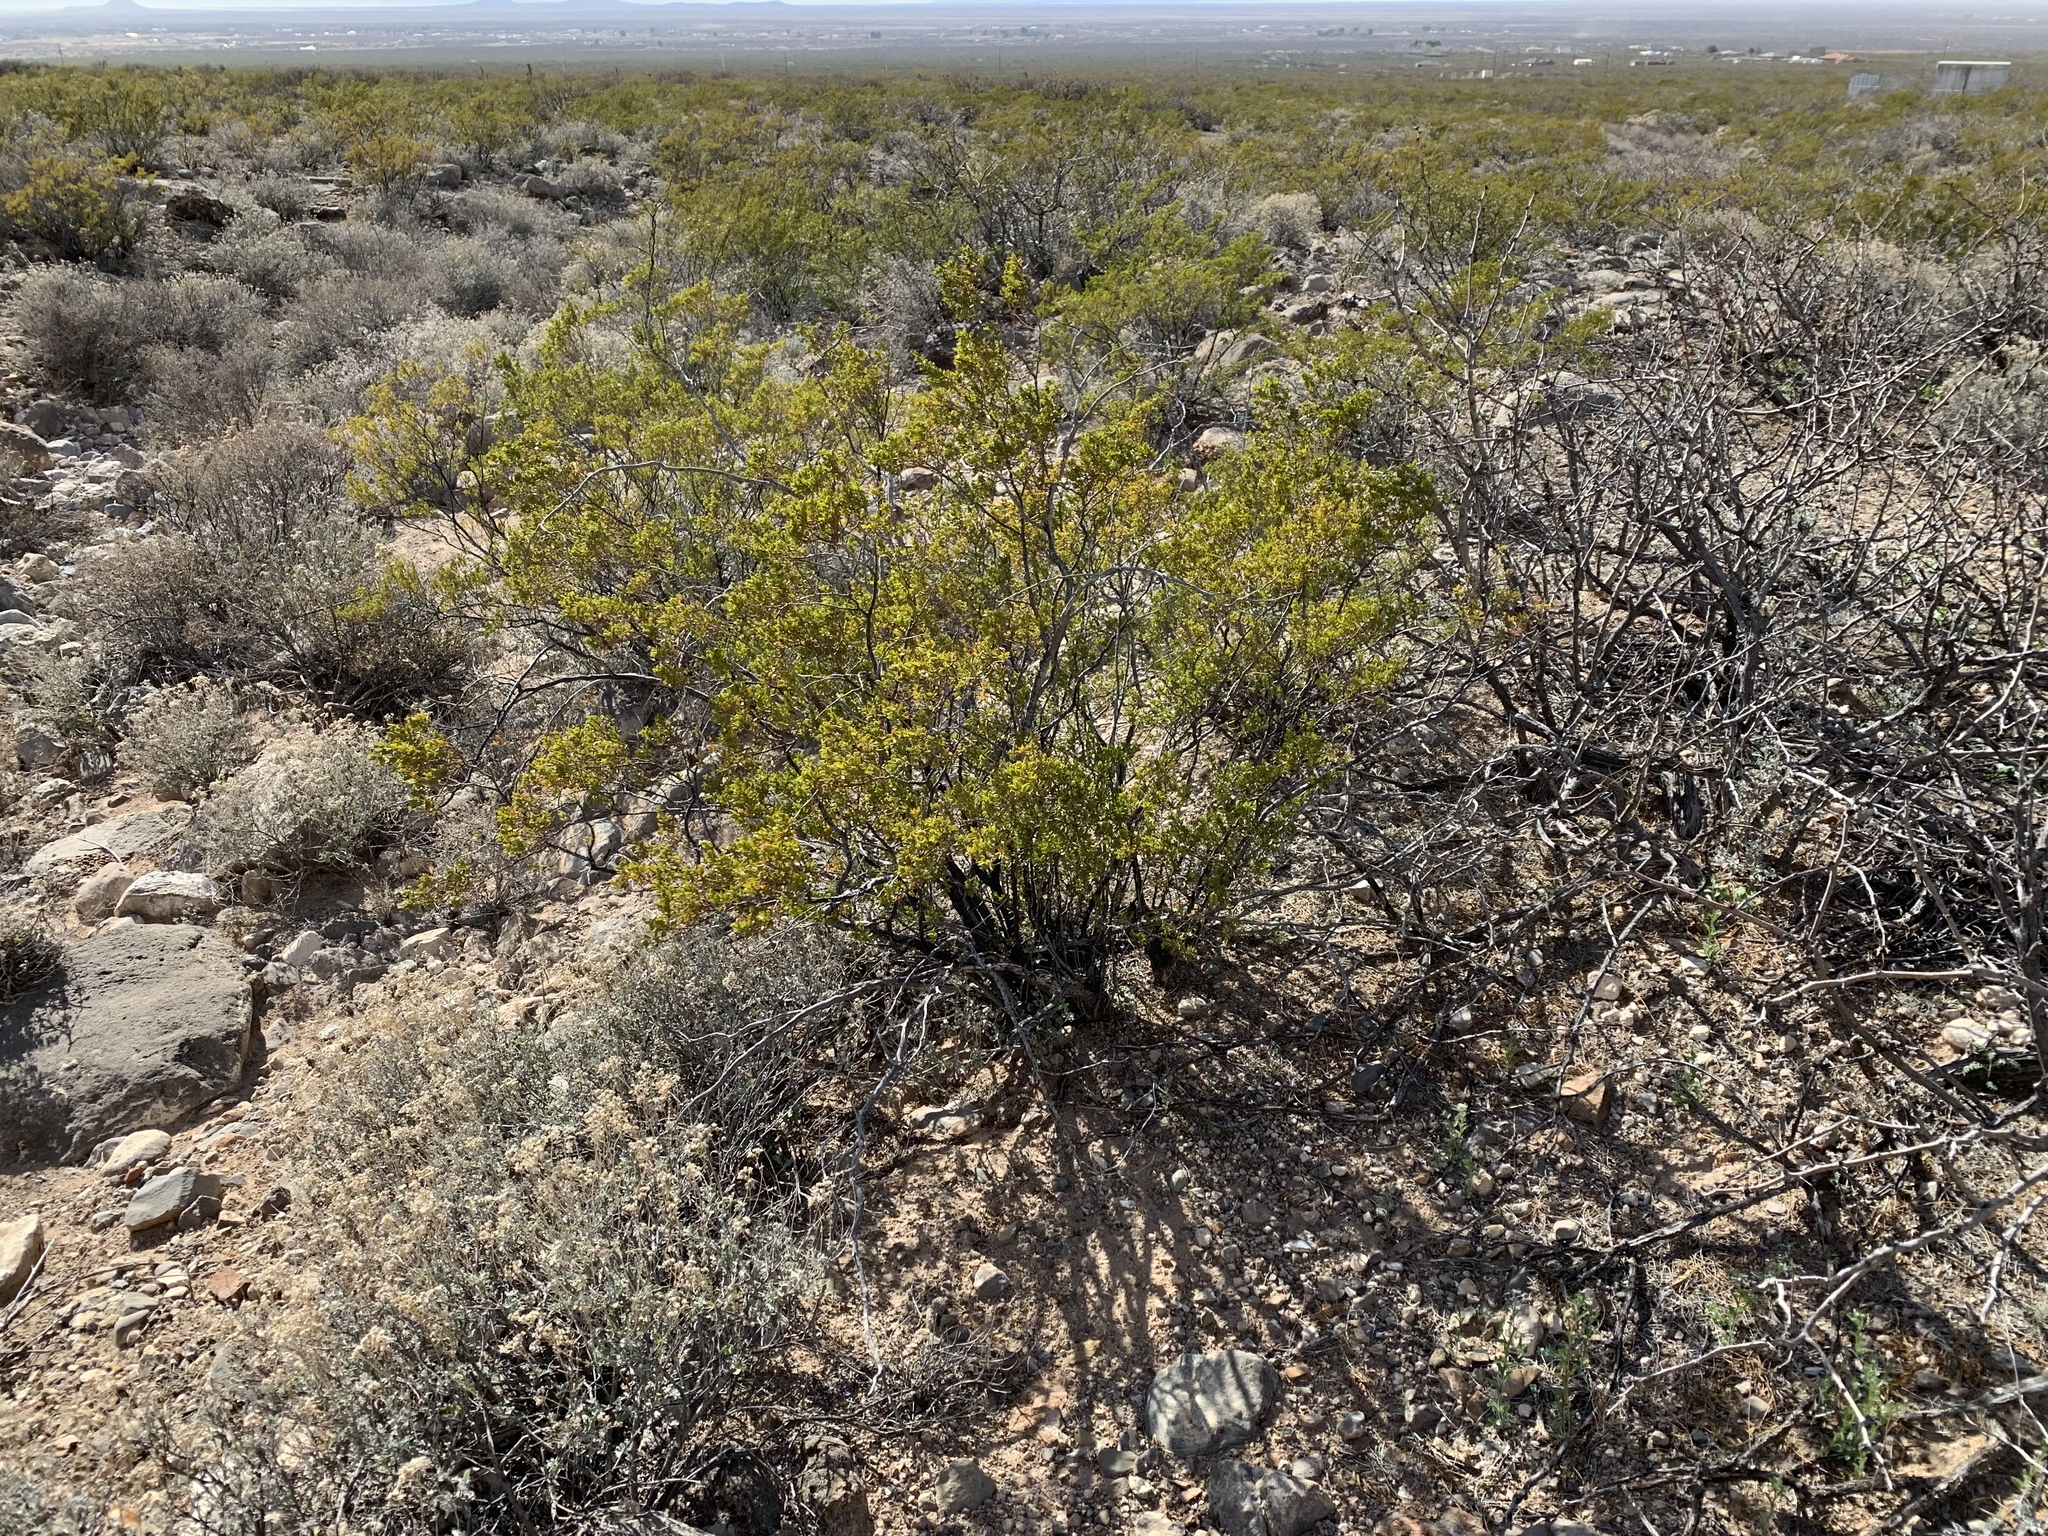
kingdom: Plantae
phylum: Tracheophyta
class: Magnoliopsida
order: Zygophyllales
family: Zygophyllaceae
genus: Larrea
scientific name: Larrea tridentata
